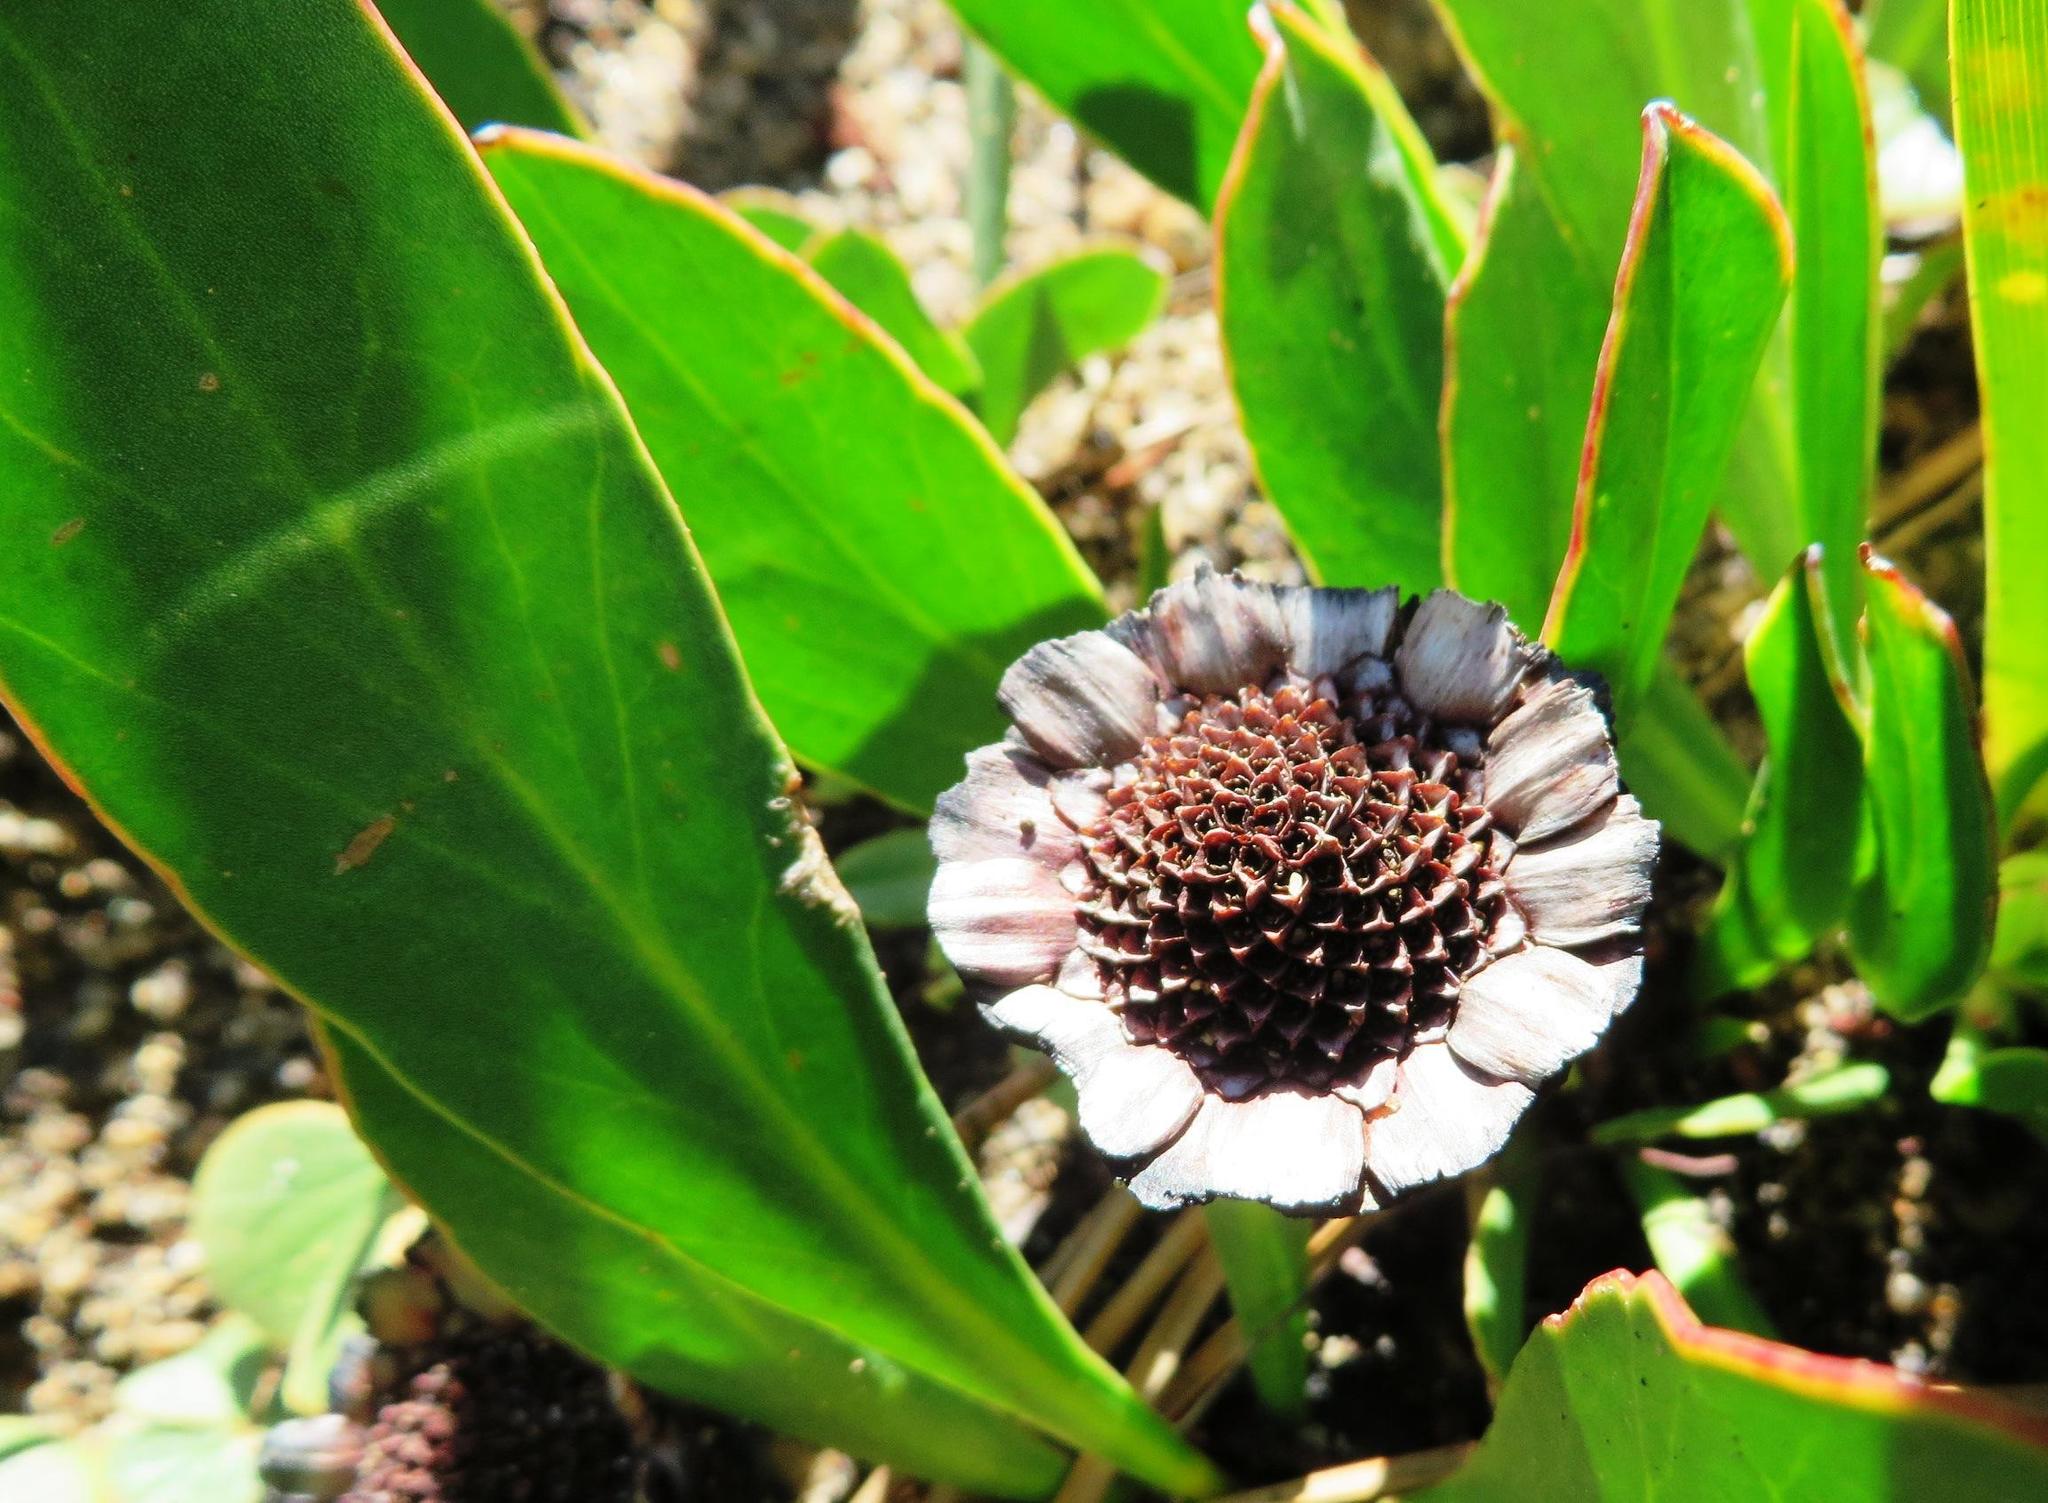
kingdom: Plantae
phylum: Tracheophyta
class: Magnoliopsida
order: Proteales
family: Proteaceae
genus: Protea
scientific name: Protea acaulos
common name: Common ground sugarbush
